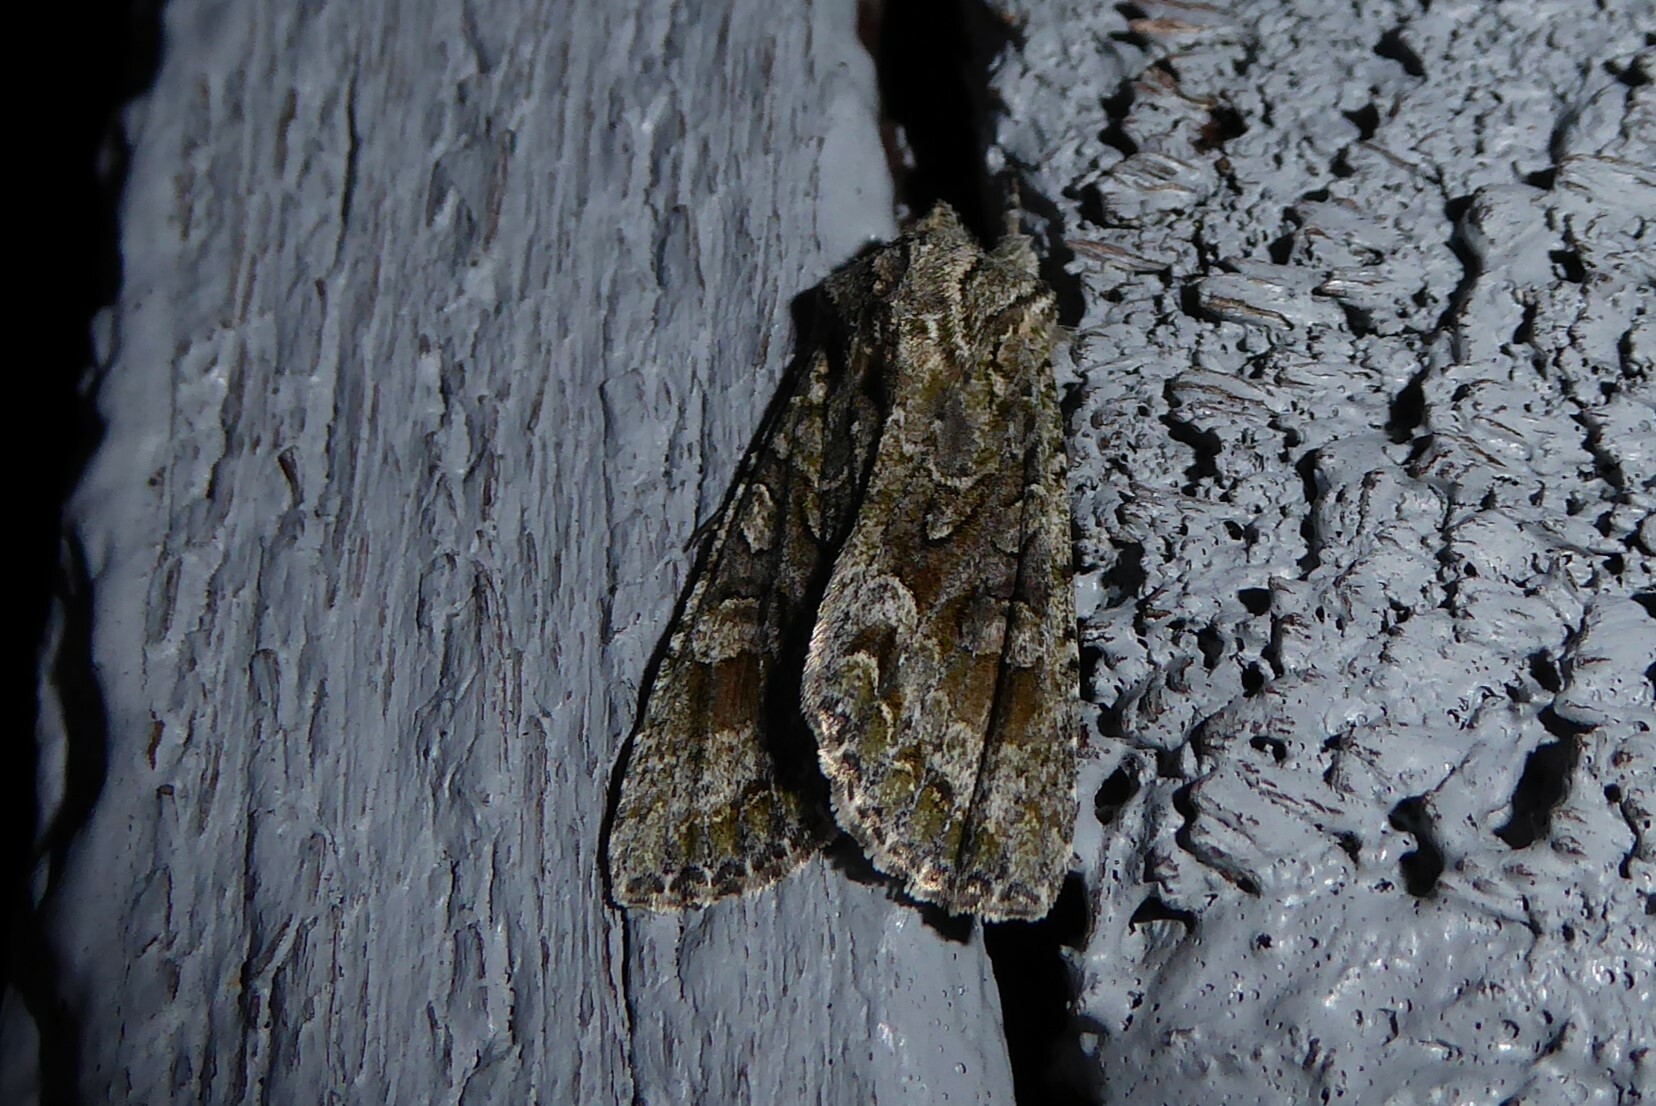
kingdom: Animalia
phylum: Arthropoda
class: Insecta
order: Lepidoptera
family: Noctuidae
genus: Ichneutica
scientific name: Ichneutica mutans
